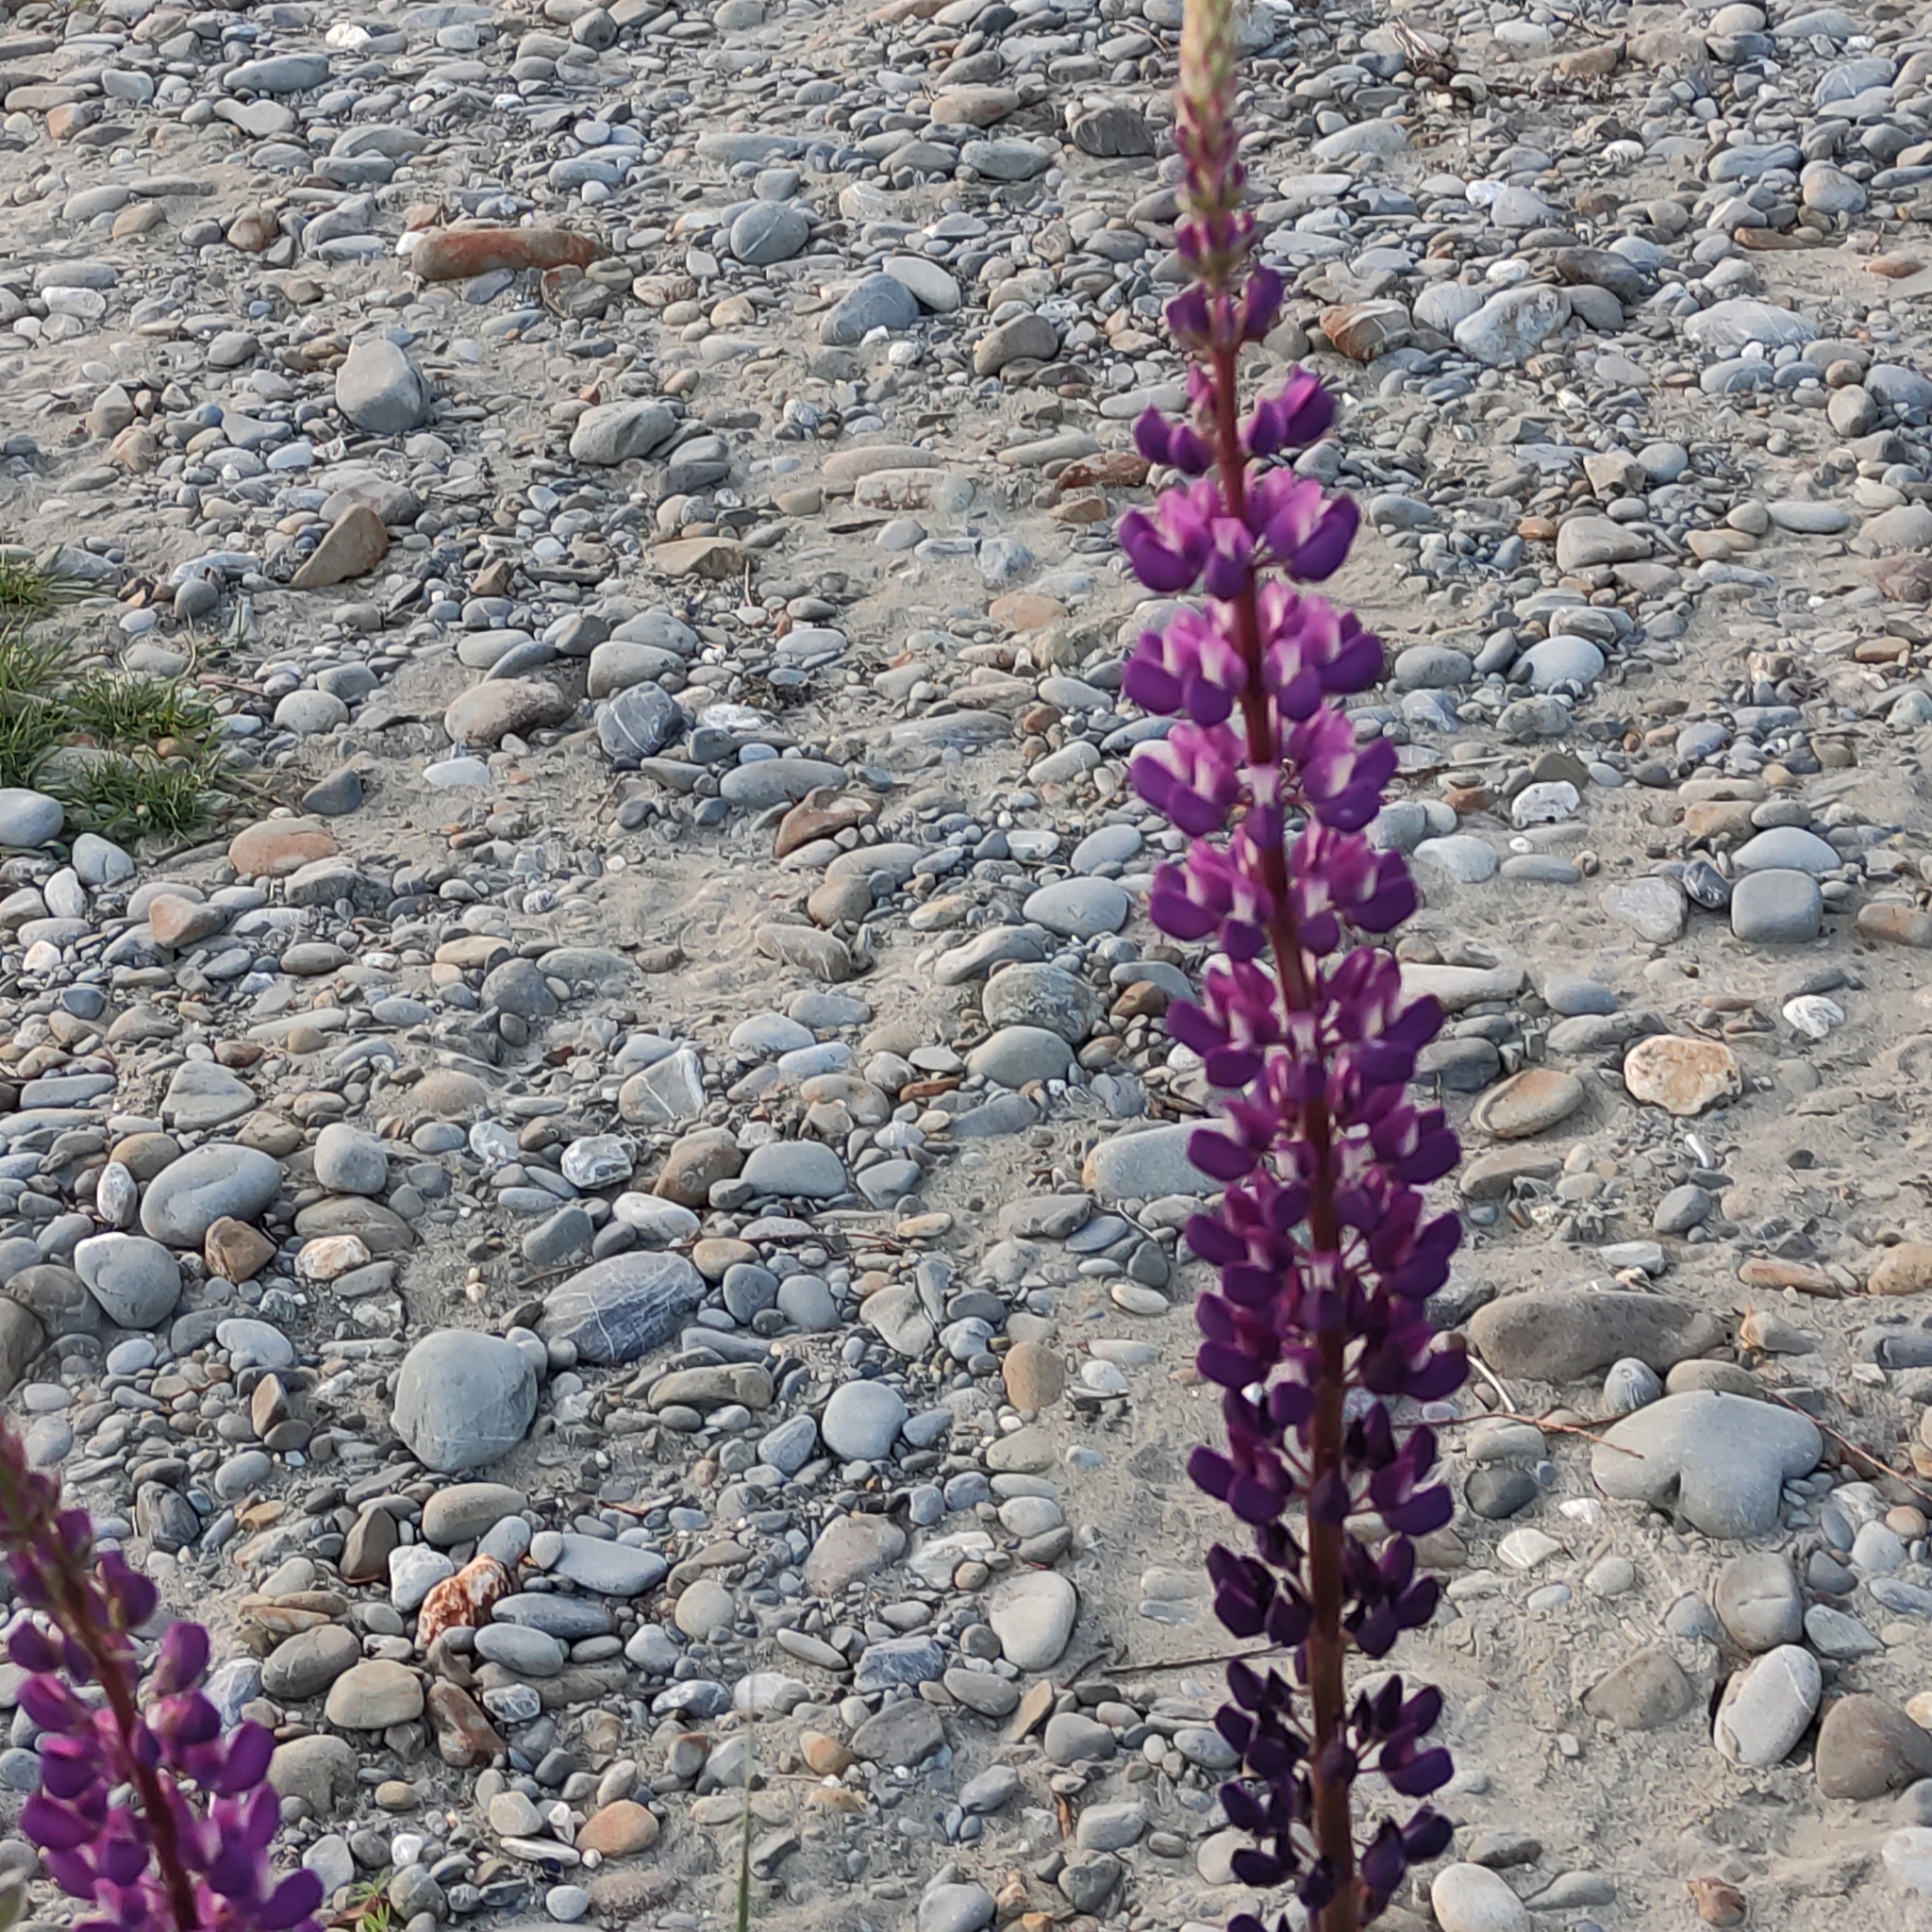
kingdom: Plantae
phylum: Tracheophyta
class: Magnoliopsida
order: Fabales
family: Fabaceae
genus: Lupinus
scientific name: Lupinus polyphyllus
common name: Garden lupin
